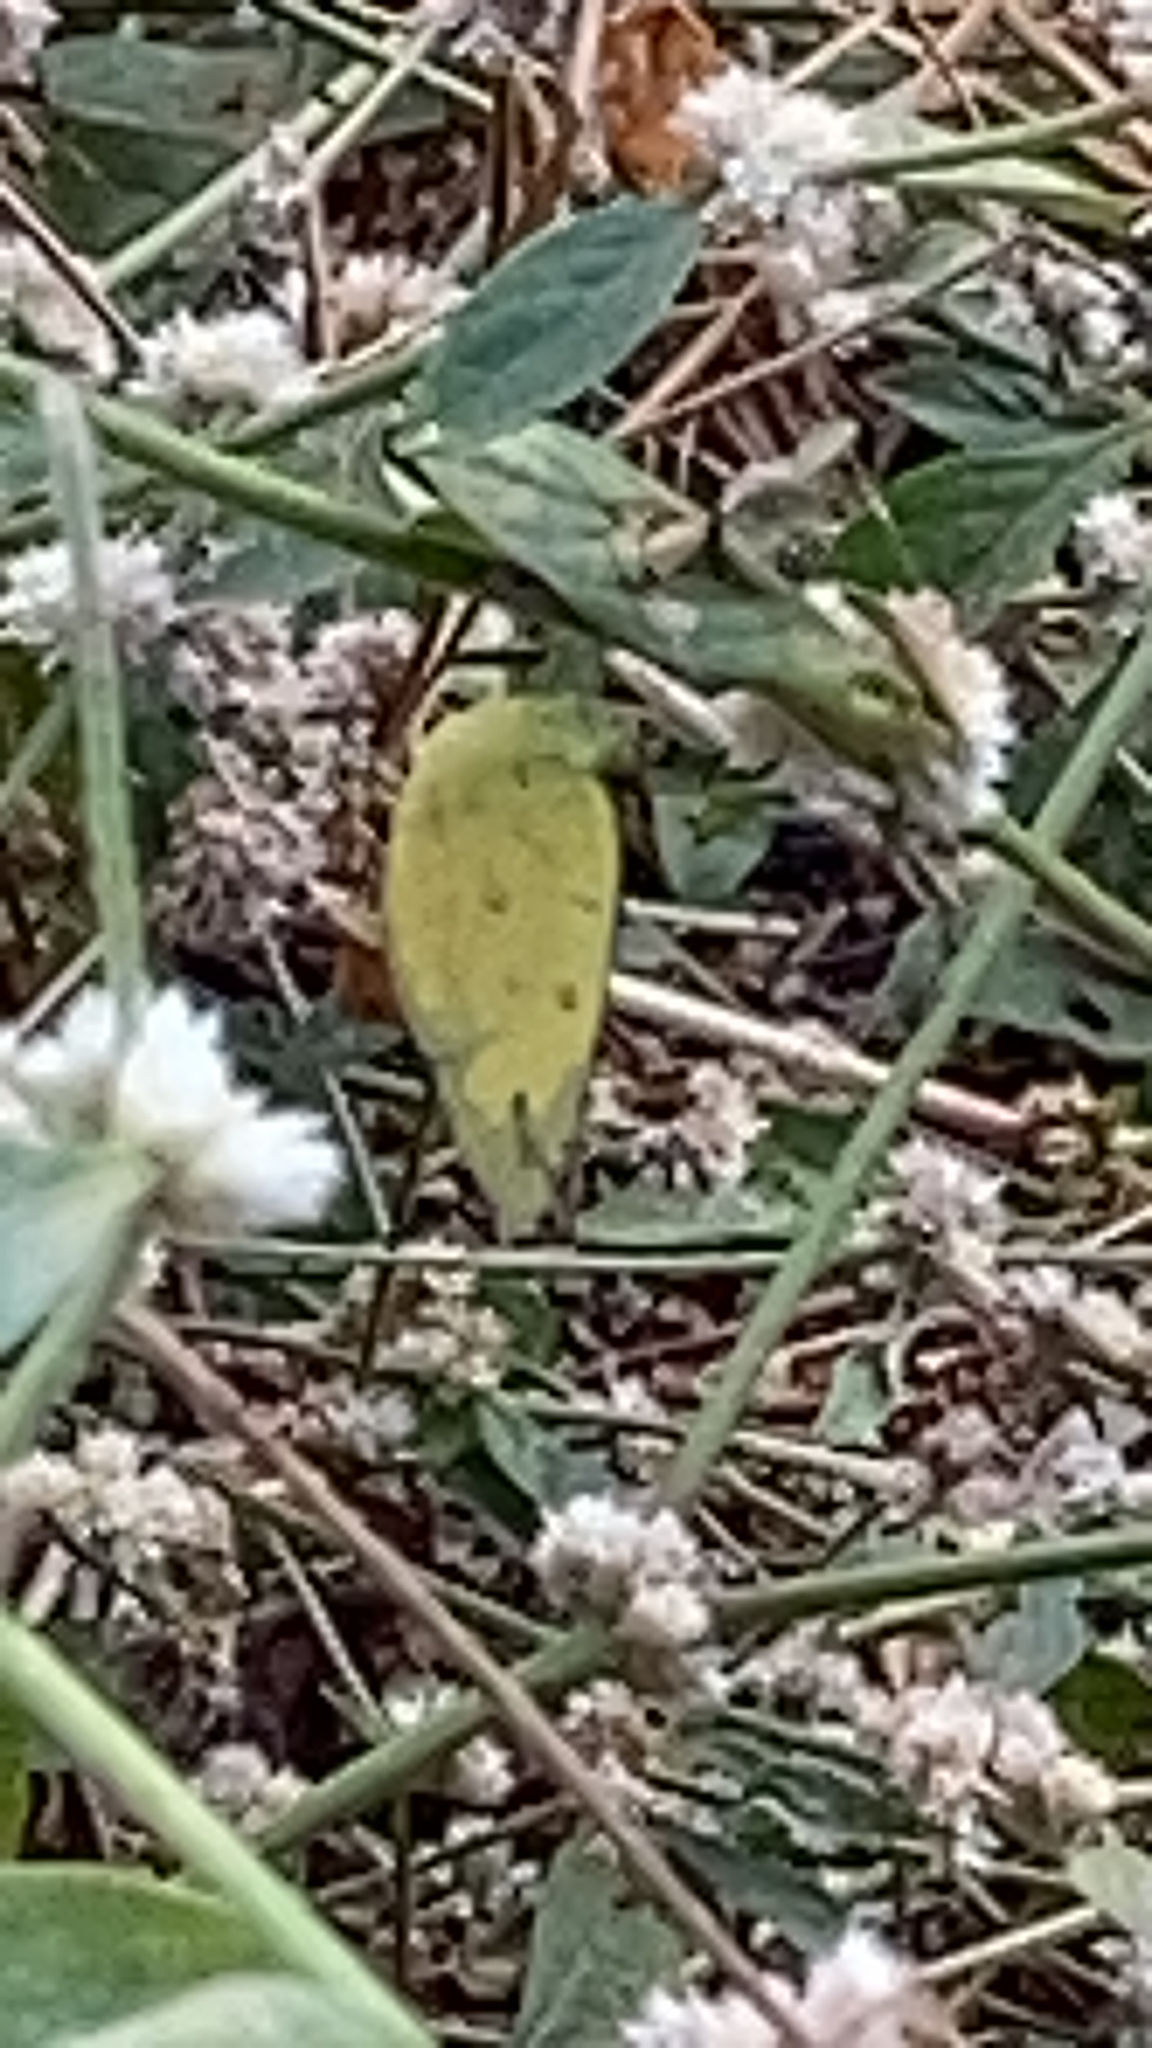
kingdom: Animalia
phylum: Arthropoda
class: Insecta
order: Lepidoptera
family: Pieridae
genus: Eurema
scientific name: Eurema hecabe
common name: Pale grass yellow
